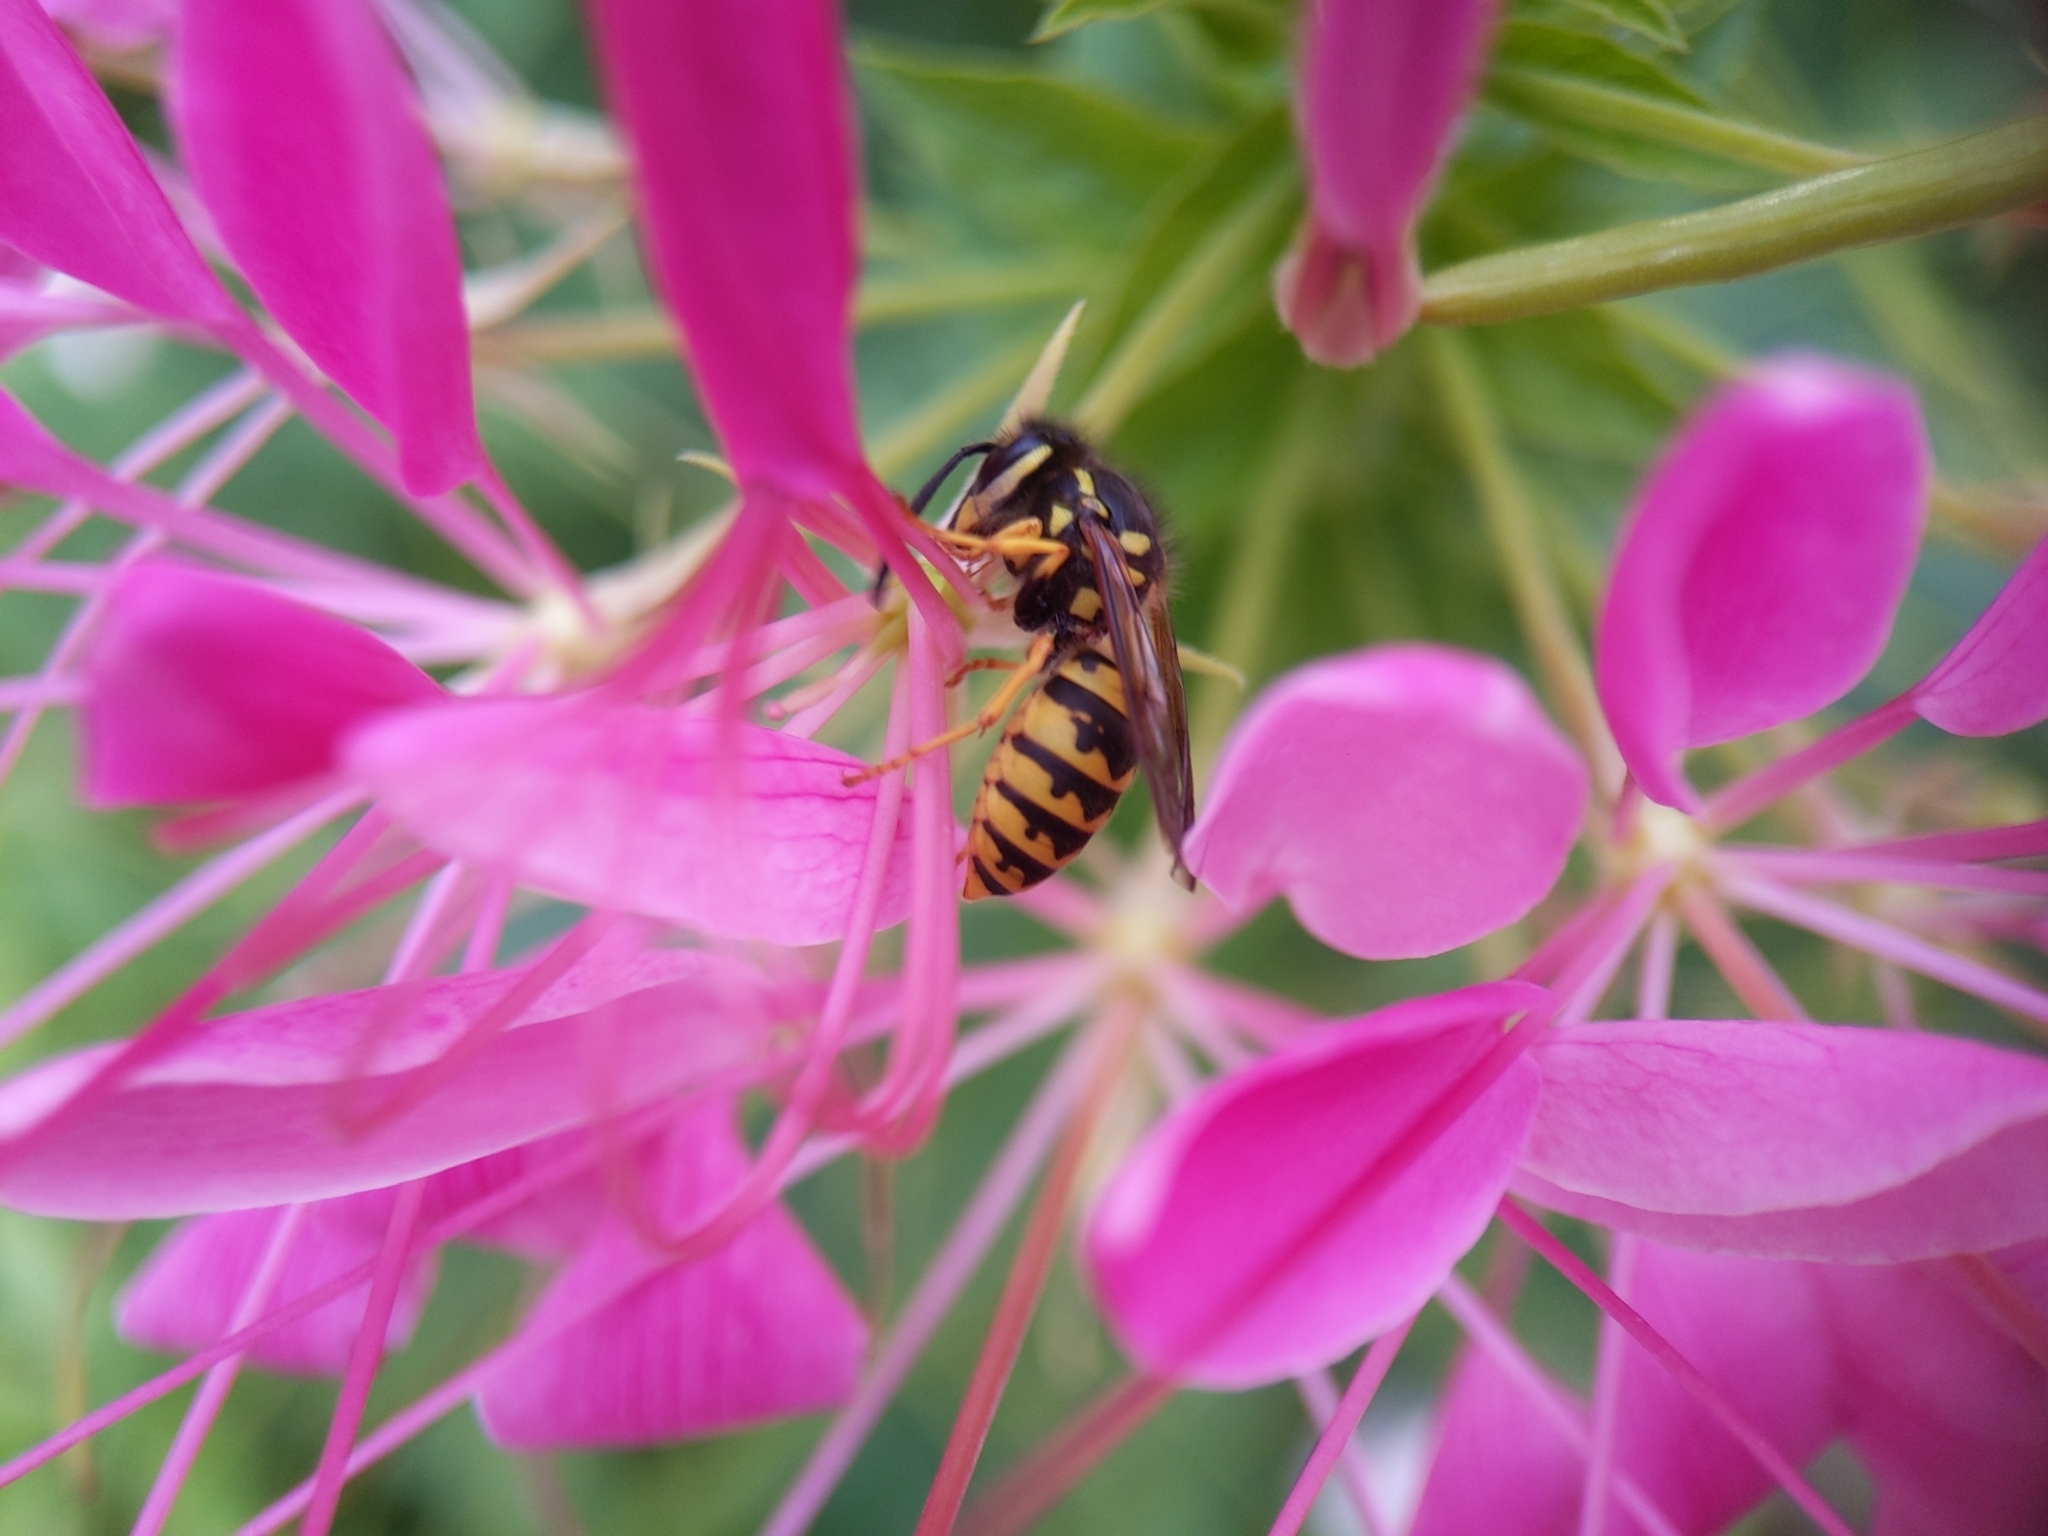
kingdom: Animalia
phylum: Arthropoda
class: Insecta
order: Hymenoptera
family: Vespidae
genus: Vespula
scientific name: Vespula germanica
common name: German wasp
